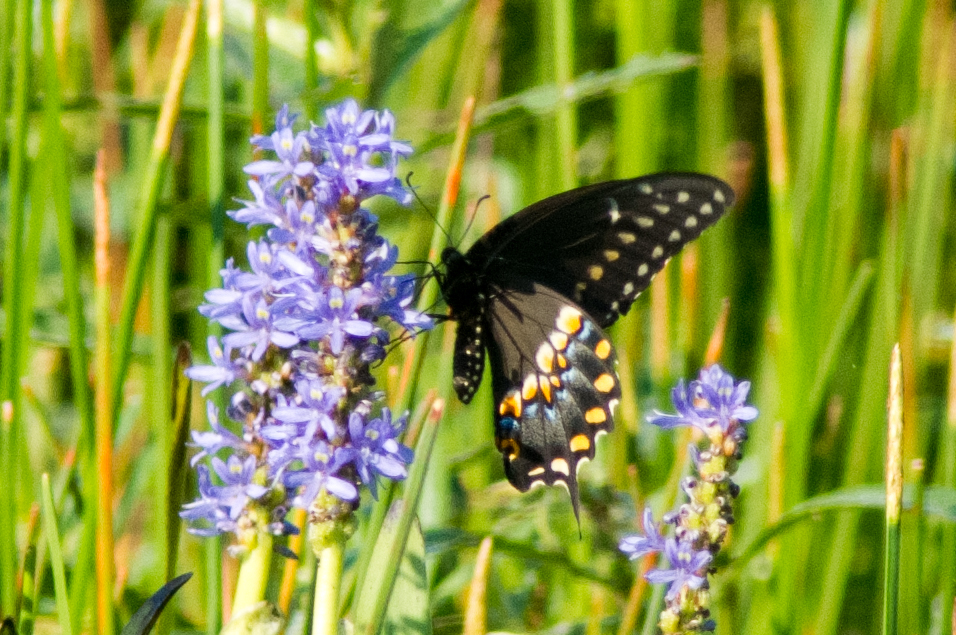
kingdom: Animalia
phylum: Arthropoda
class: Insecta
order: Lepidoptera
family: Papilionidae
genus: Papilio
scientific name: Papilio polyxenes
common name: Black swallowtail
